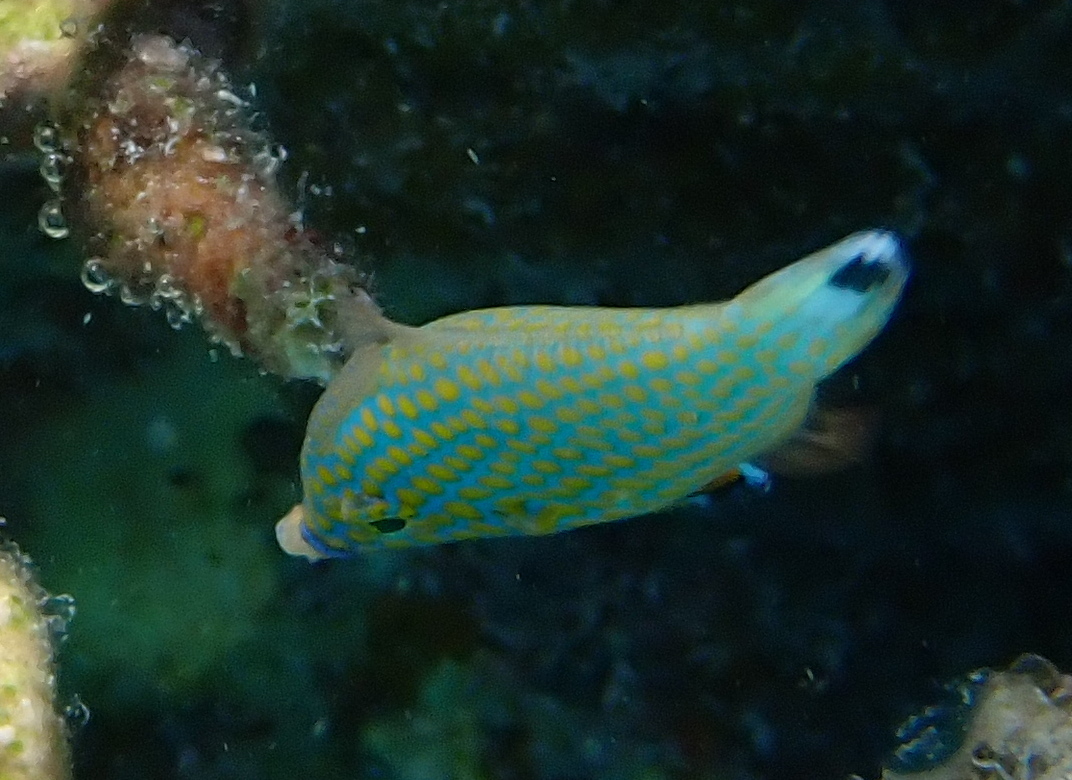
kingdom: Animalia
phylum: Chordata
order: Tetraodontiformes
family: Monacanthidae
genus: Oxymonacanthus
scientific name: Oxymonacanthus halli
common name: Red sea harlequin filefish
